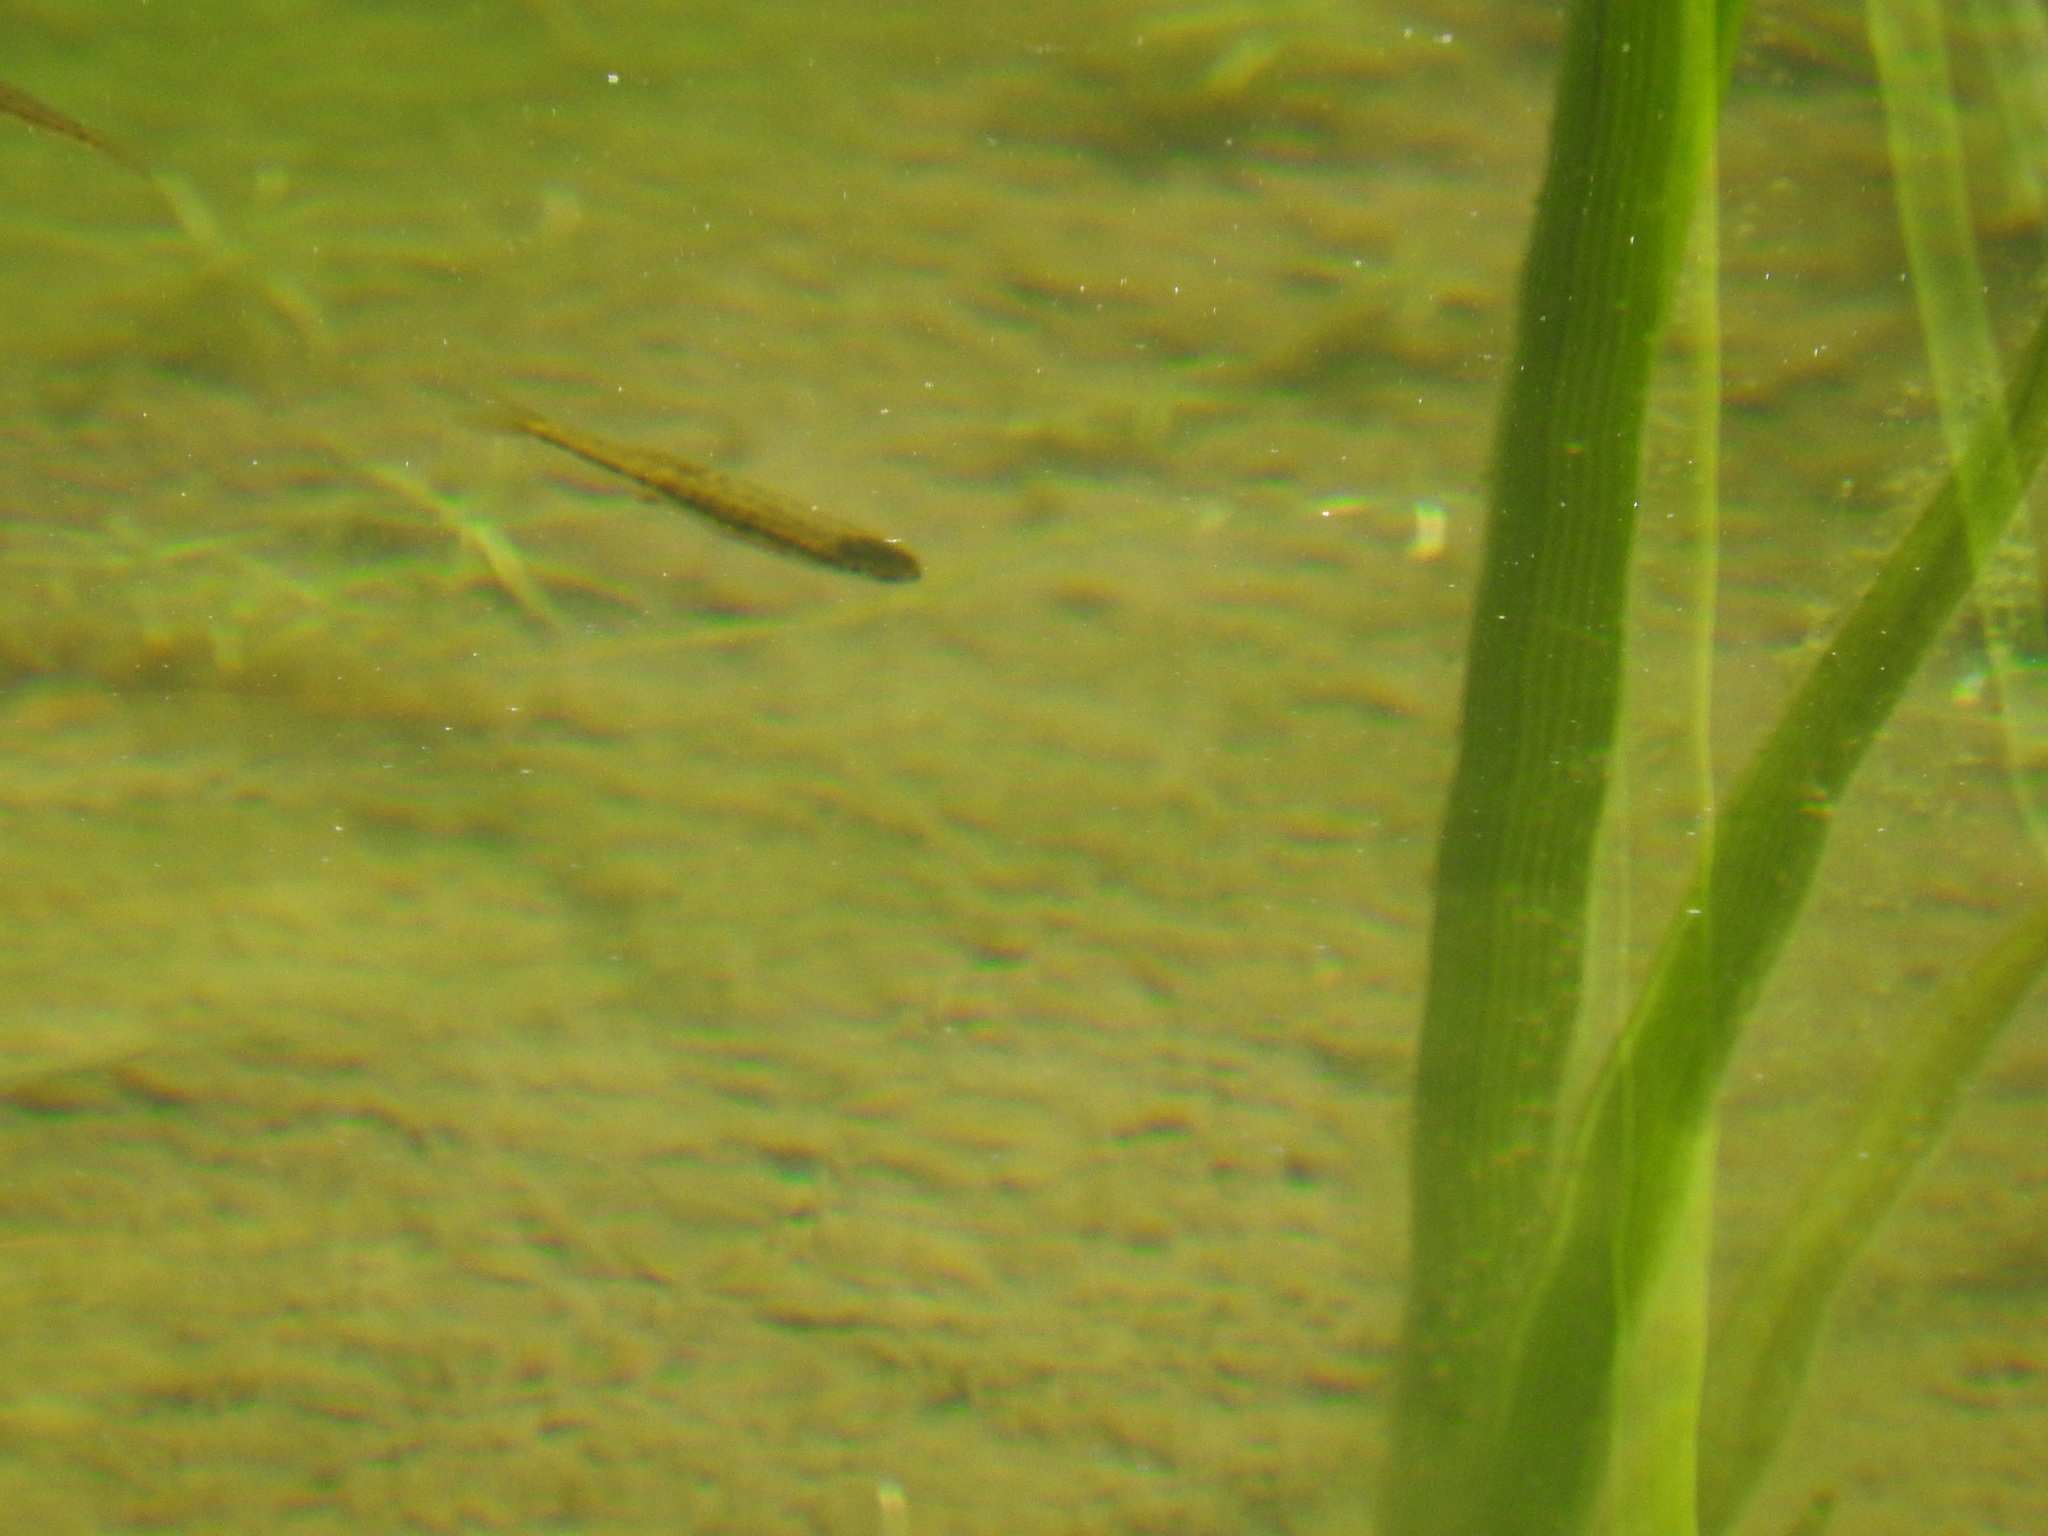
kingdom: Animalia
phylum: Chordata
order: Cypriniformes
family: Cyprinidae
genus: Phoxinus
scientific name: Phoxinus phoxinus
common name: Minnow
